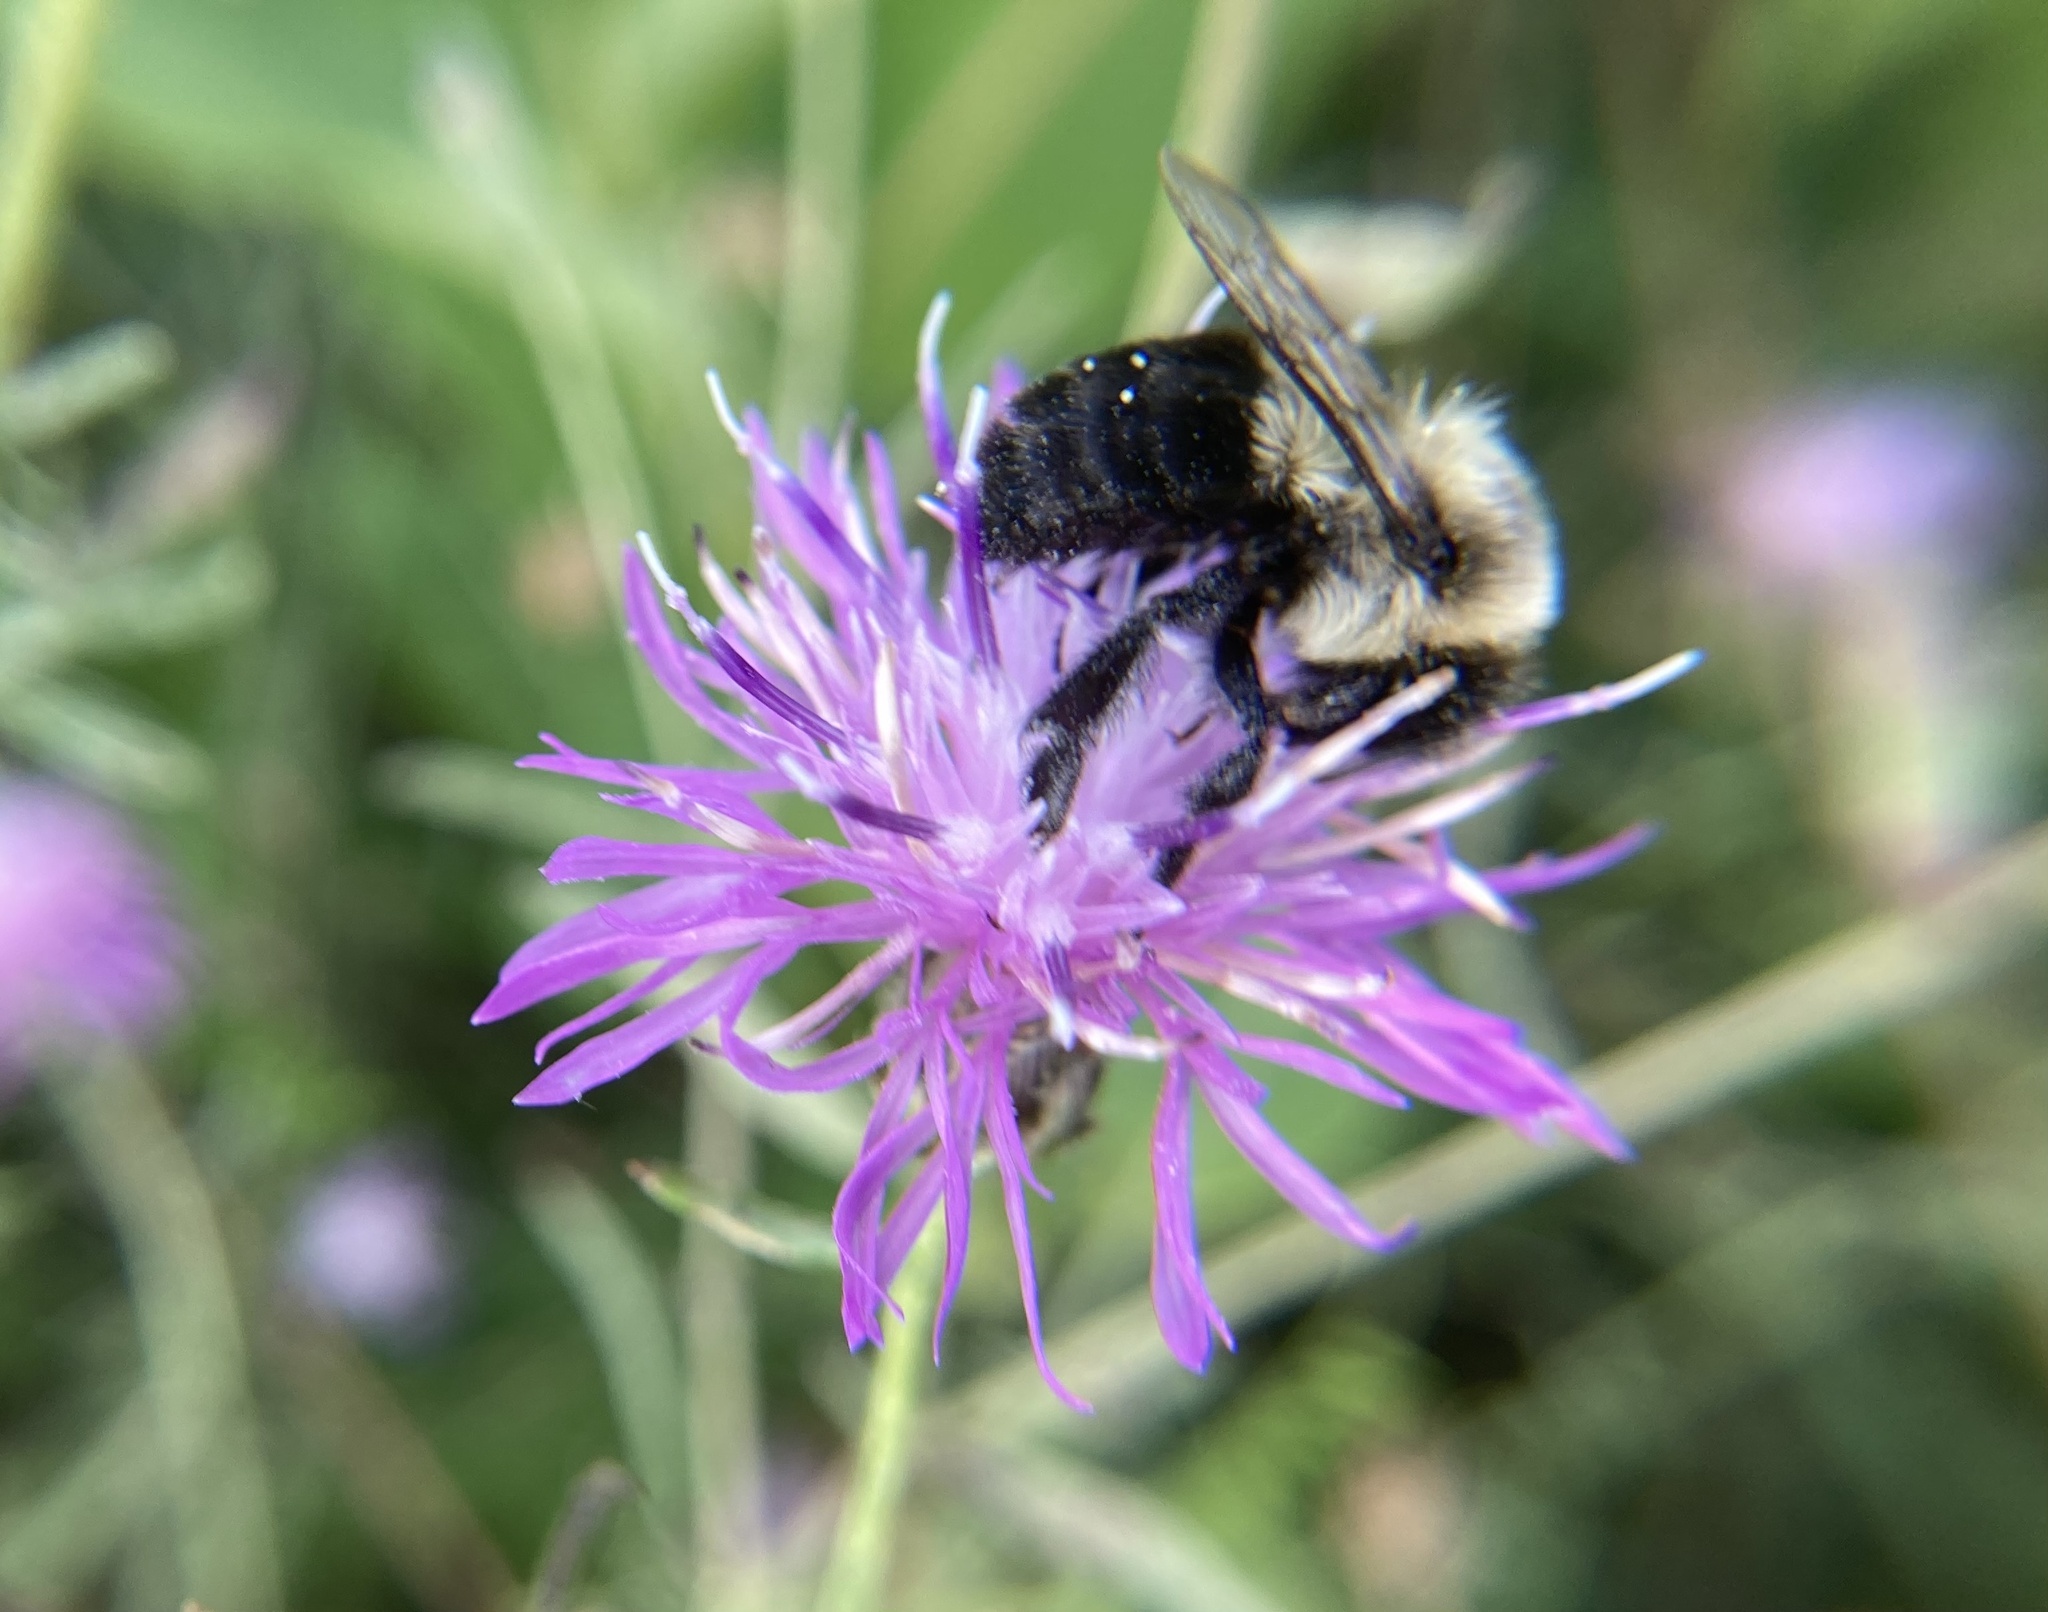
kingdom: Animalia
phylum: Arthropoda
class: Insecta
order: Hymenoptera
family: Apidae
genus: Bombus
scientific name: Bombus impatiens
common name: Common eastern bumble bee
